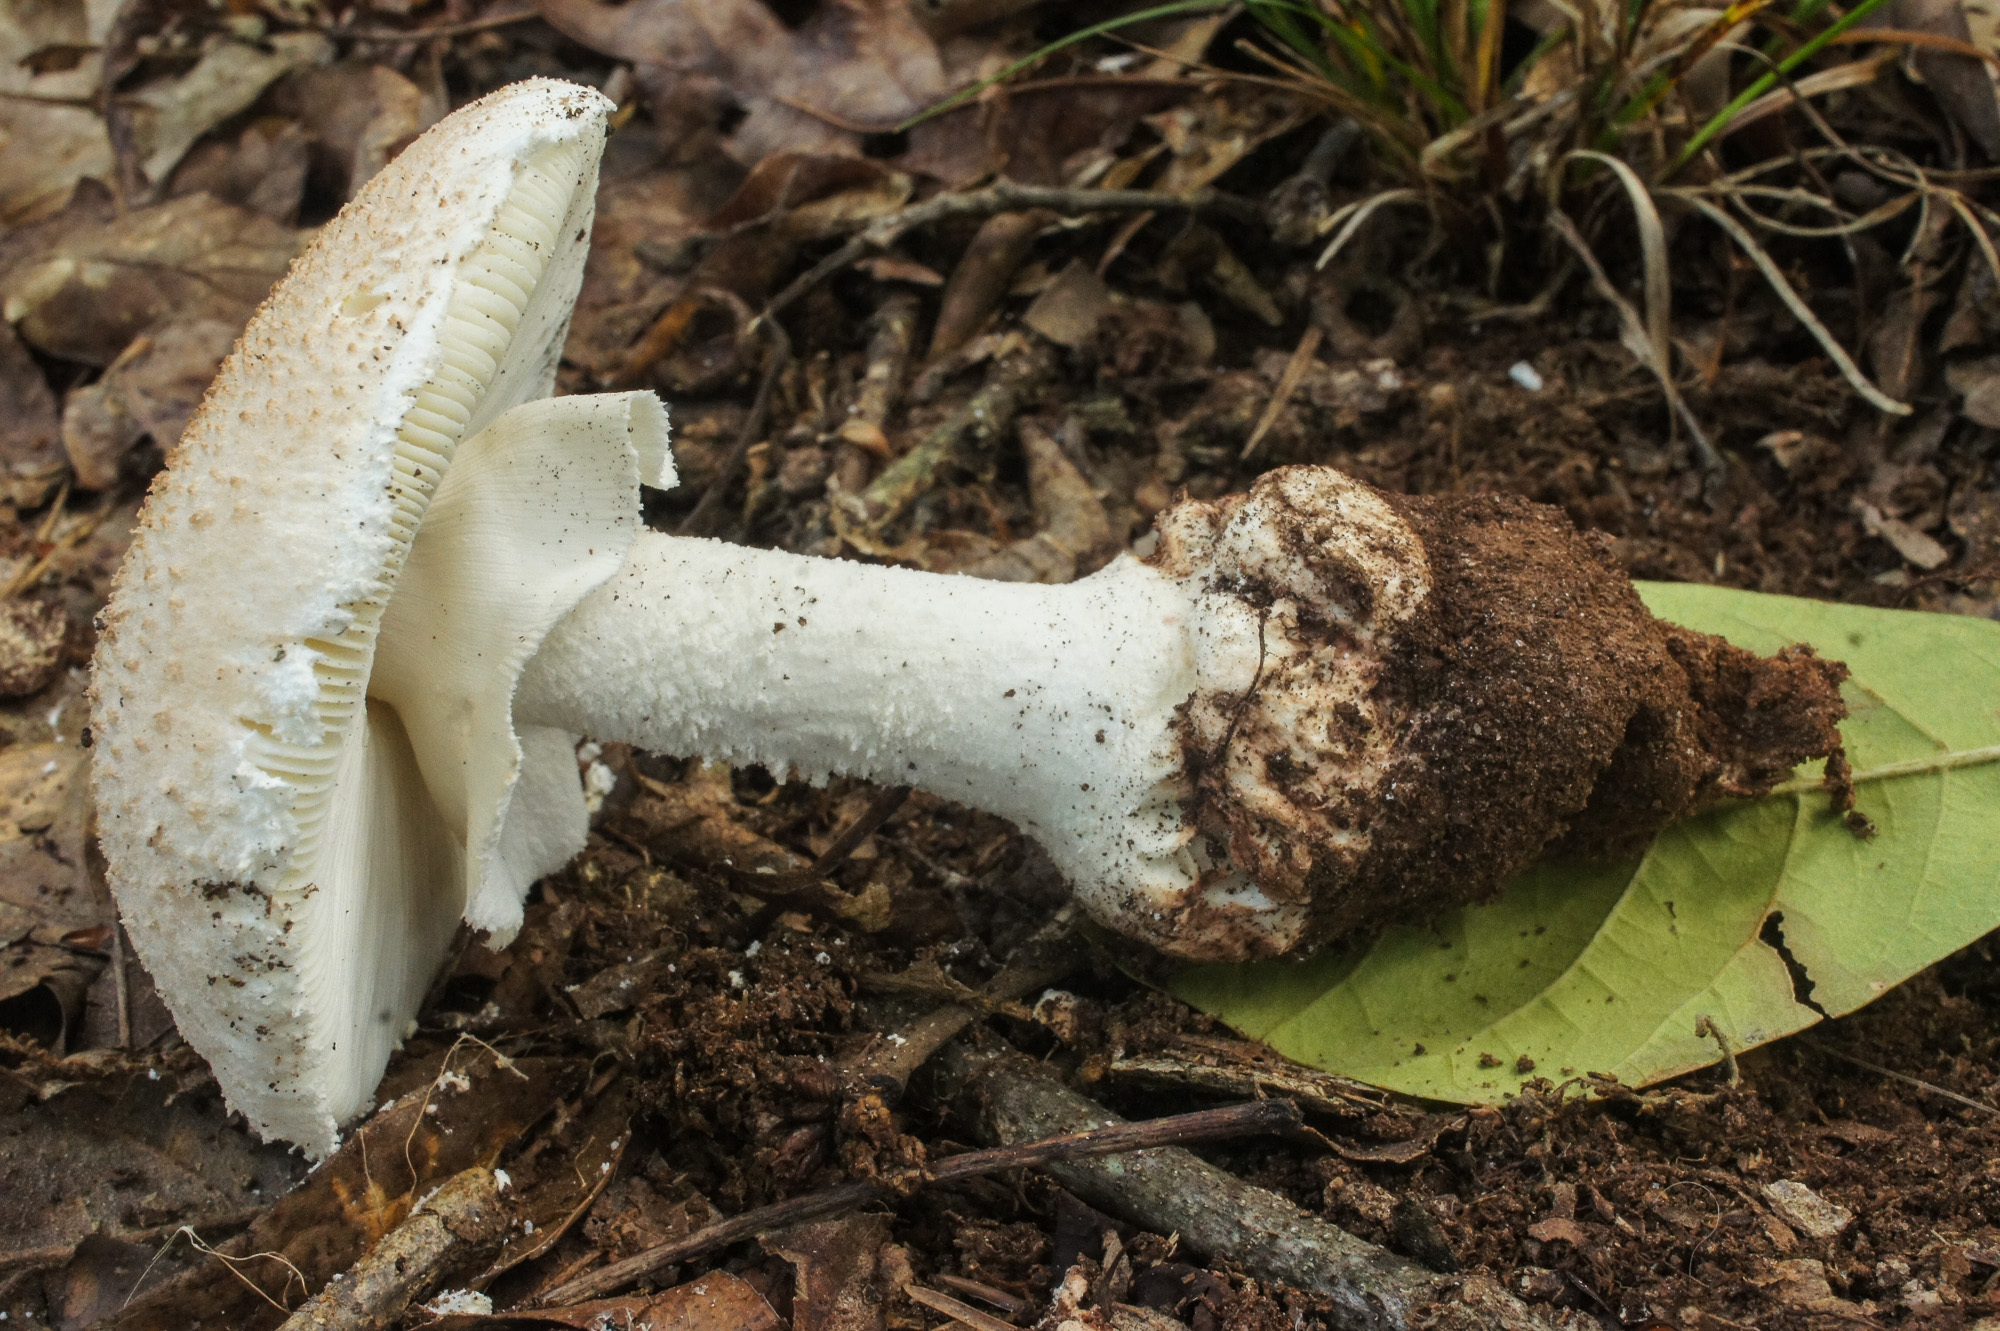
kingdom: Fungi
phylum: Basidiomycota
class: Agaricomycetes
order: Agaricales
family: Amanitaceae
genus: Amanita
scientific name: Amanita ravenelii
